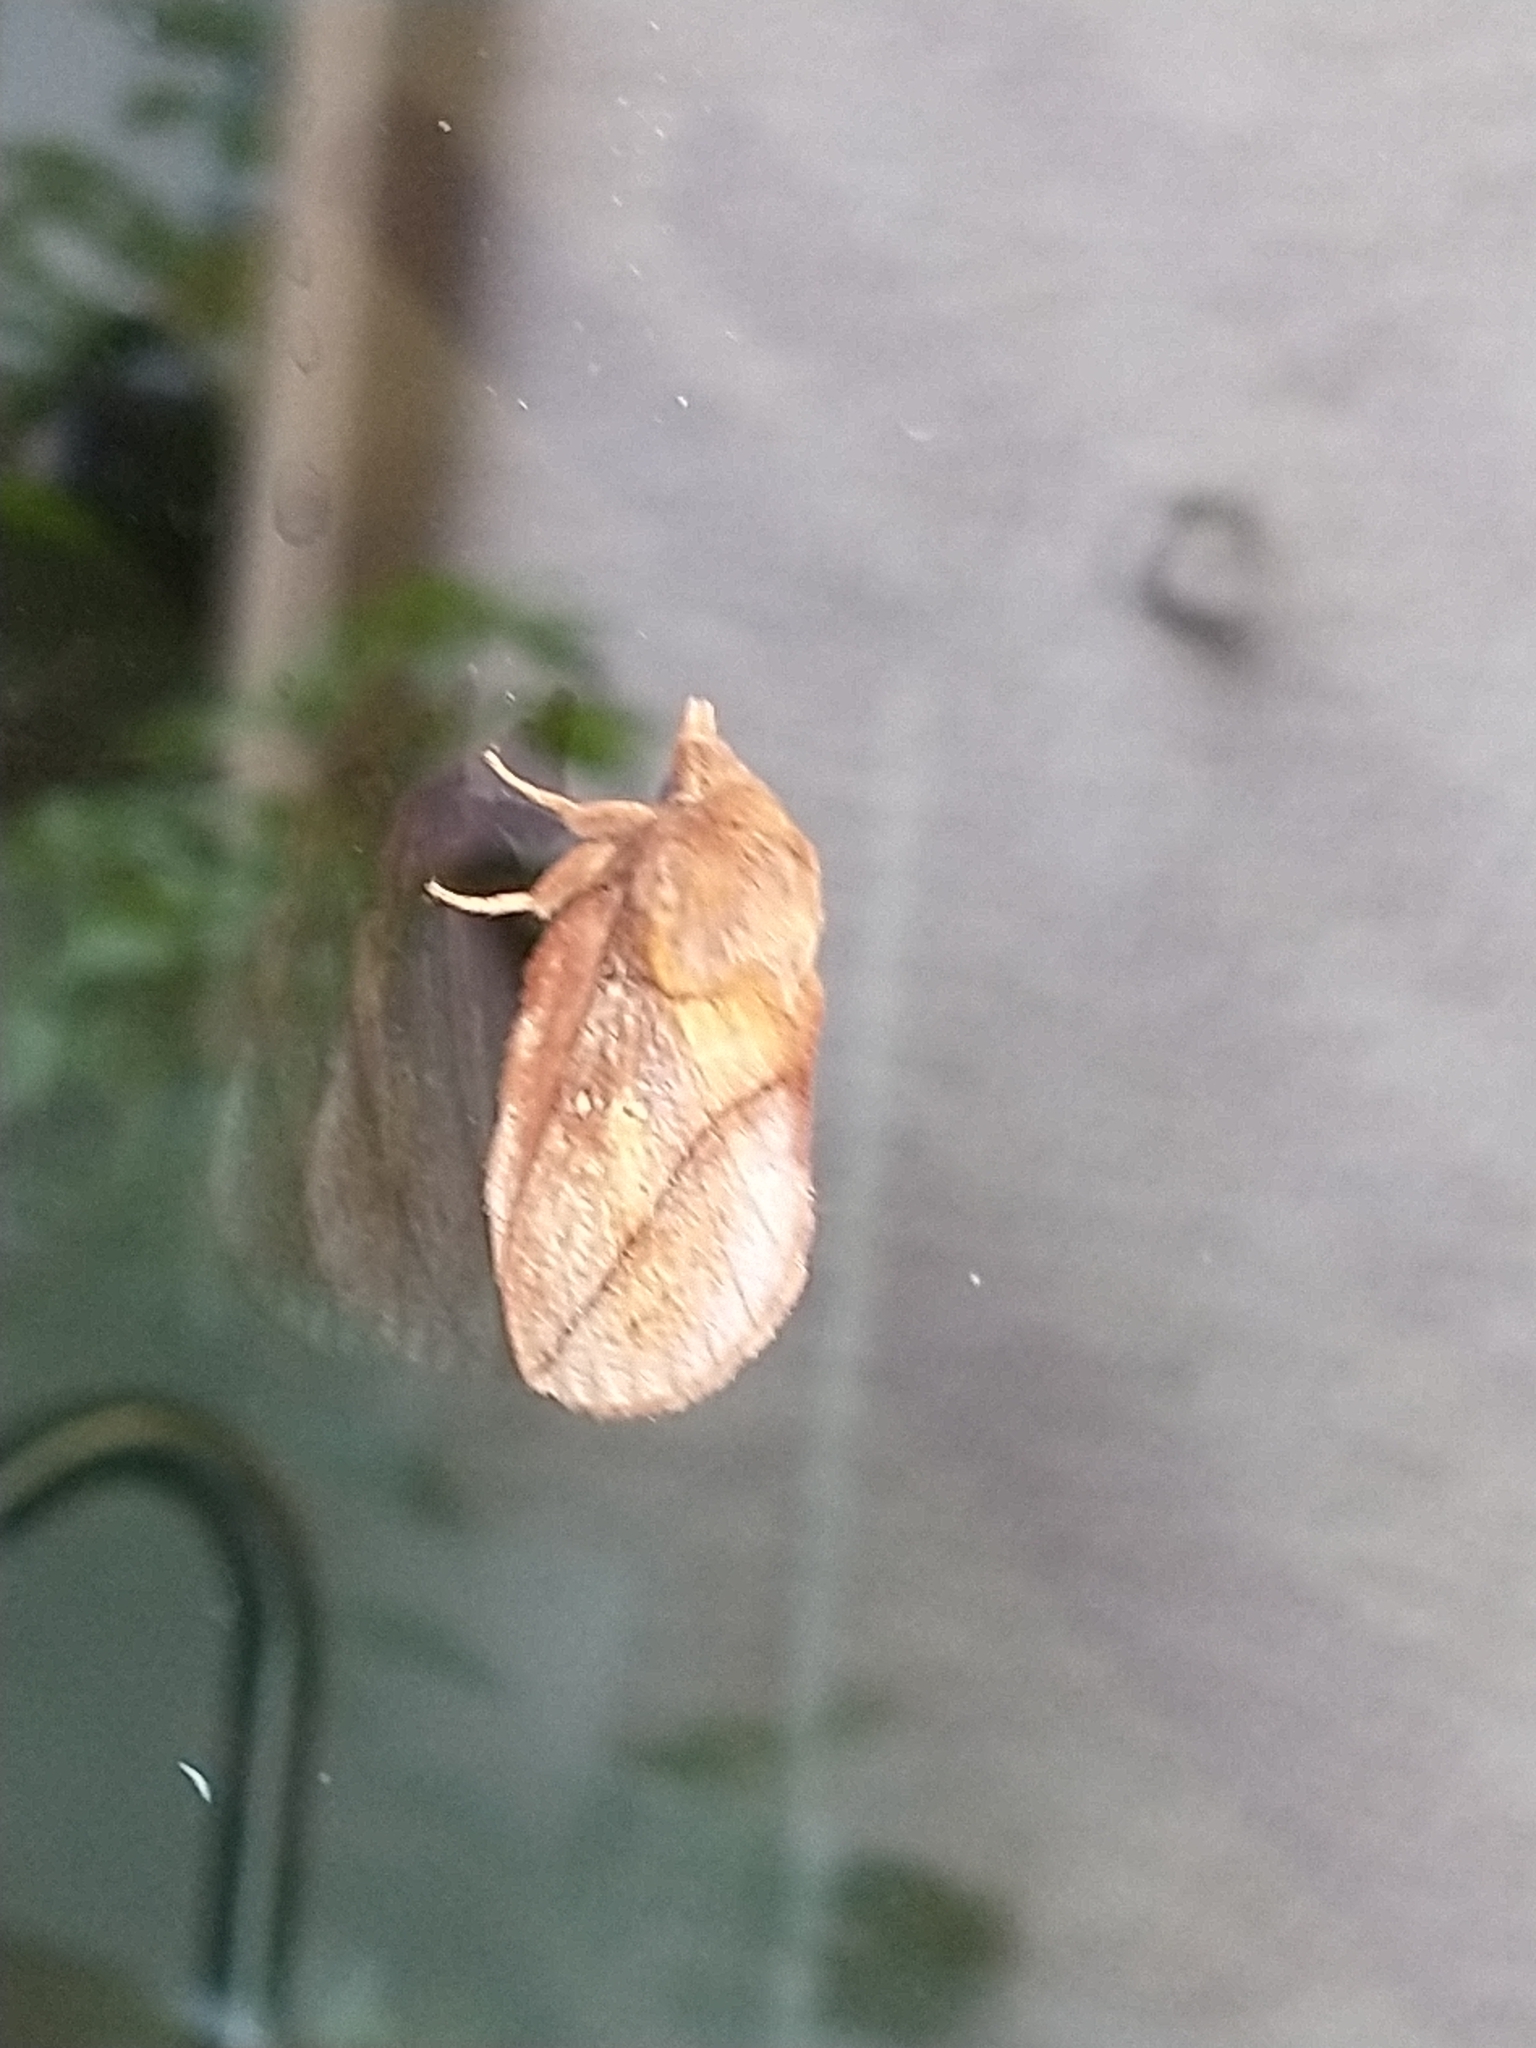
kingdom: Animalia
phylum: Arthropoda
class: Insecta
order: Lepidoptera
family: Lasiocampidae
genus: Euthrix
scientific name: Euthrix potatoria
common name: Drinker
